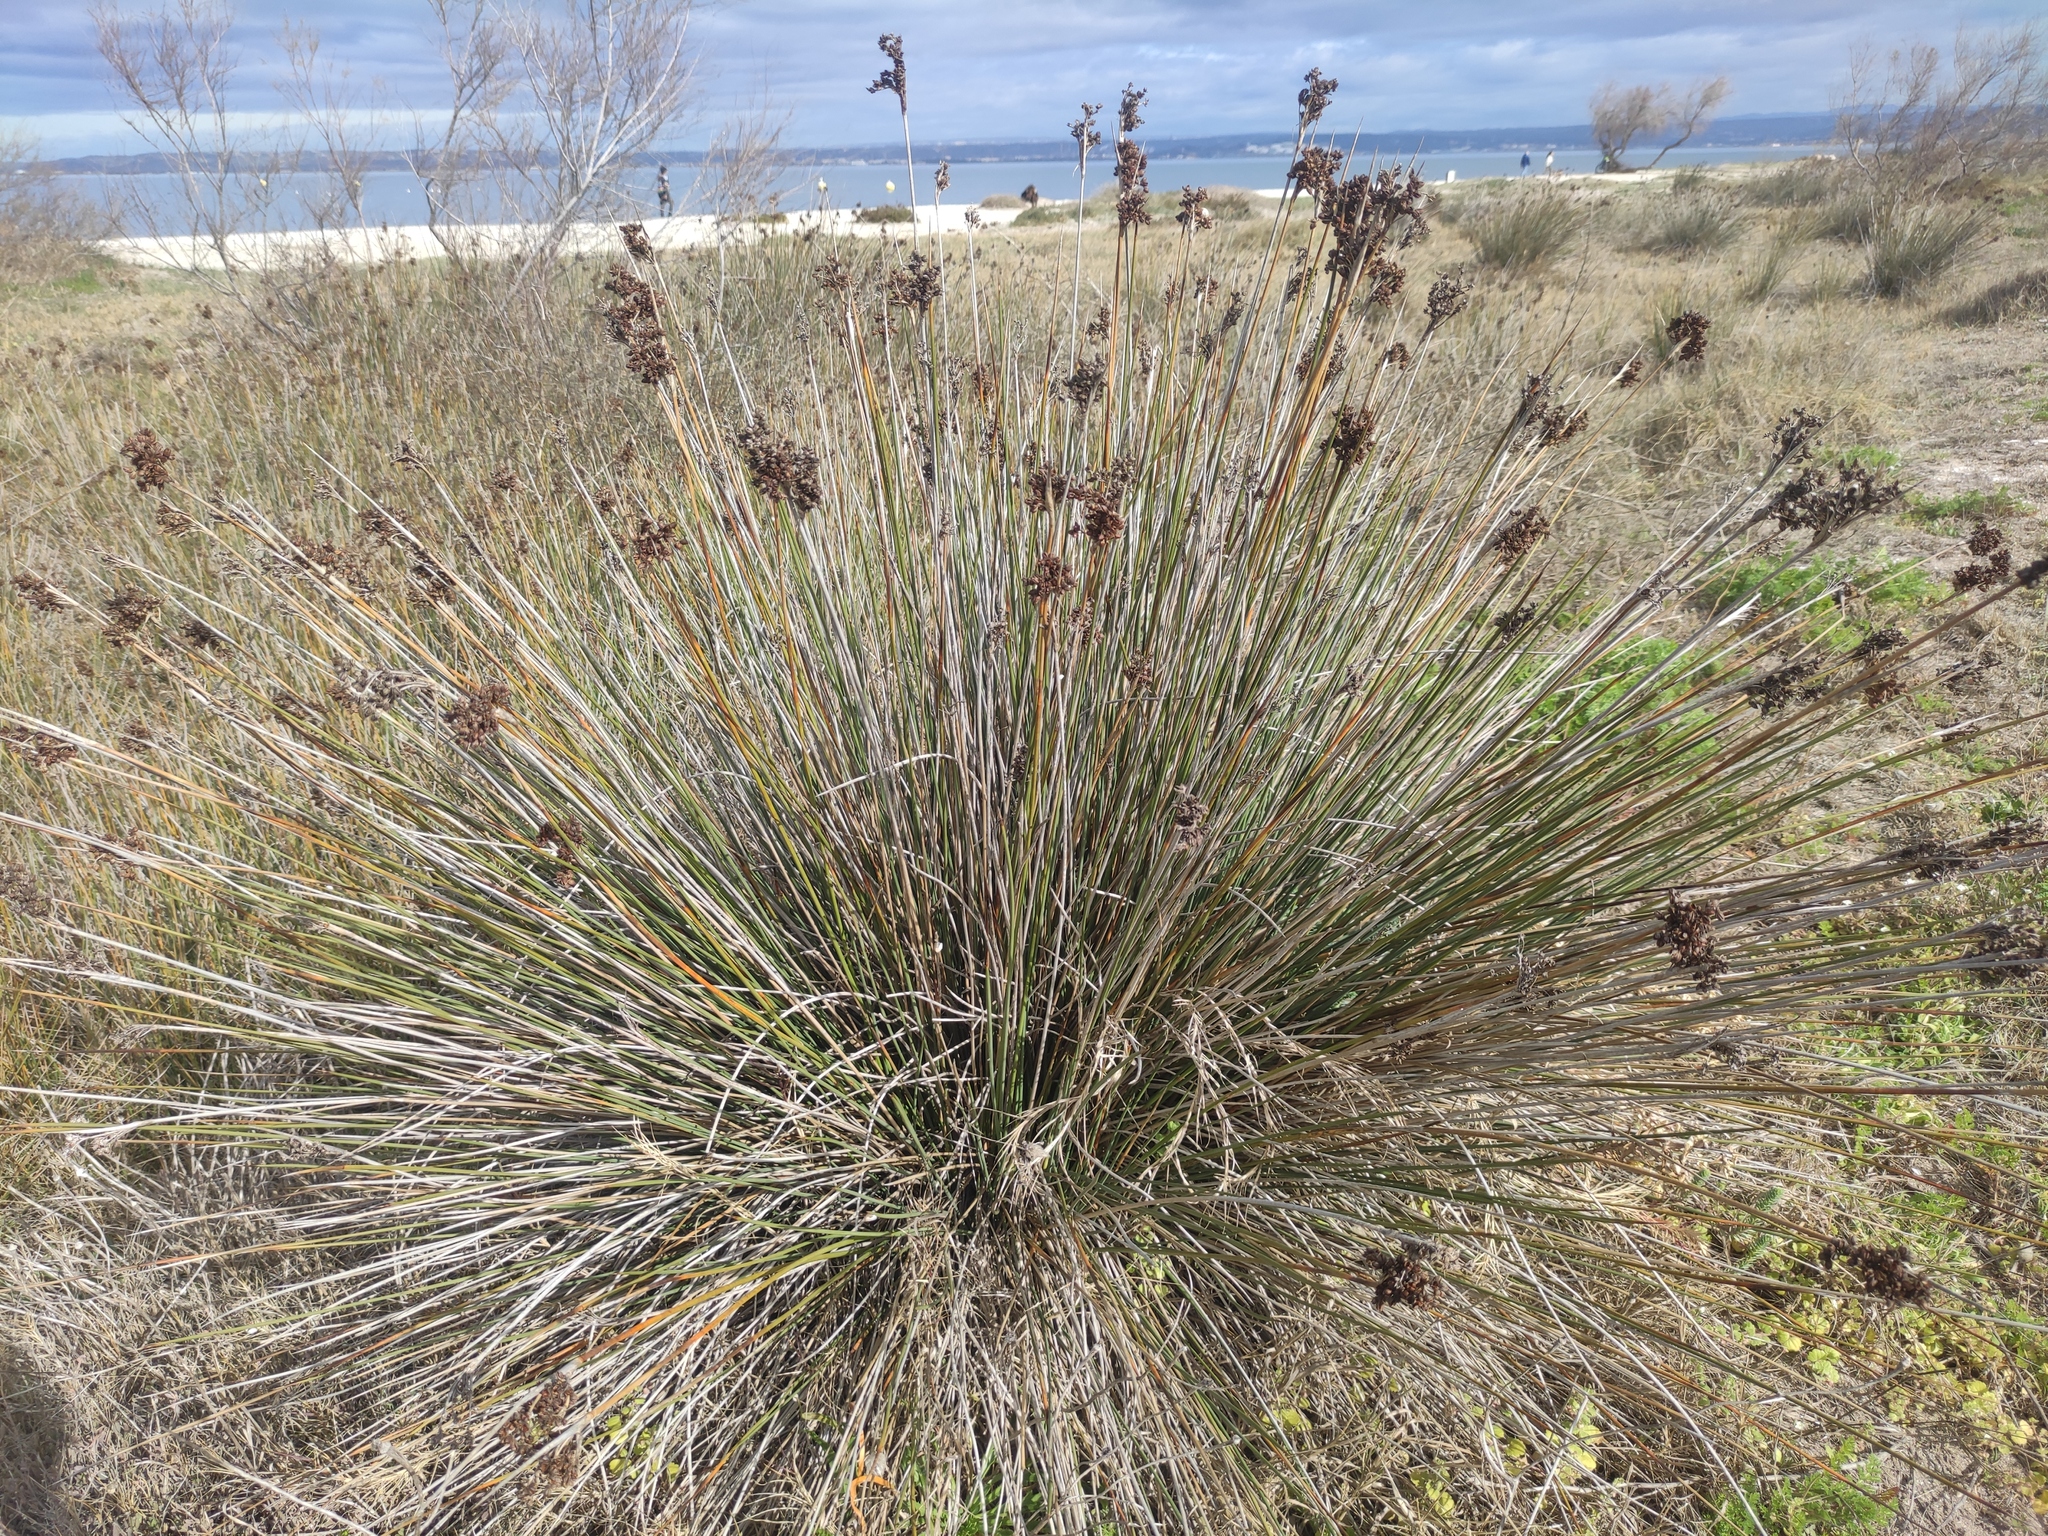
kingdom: Plantae
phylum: Tracheophyta
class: Liliopsida
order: Poales
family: Juncaceae
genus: Juncus
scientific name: Juncus acutus
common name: Sharp rush
